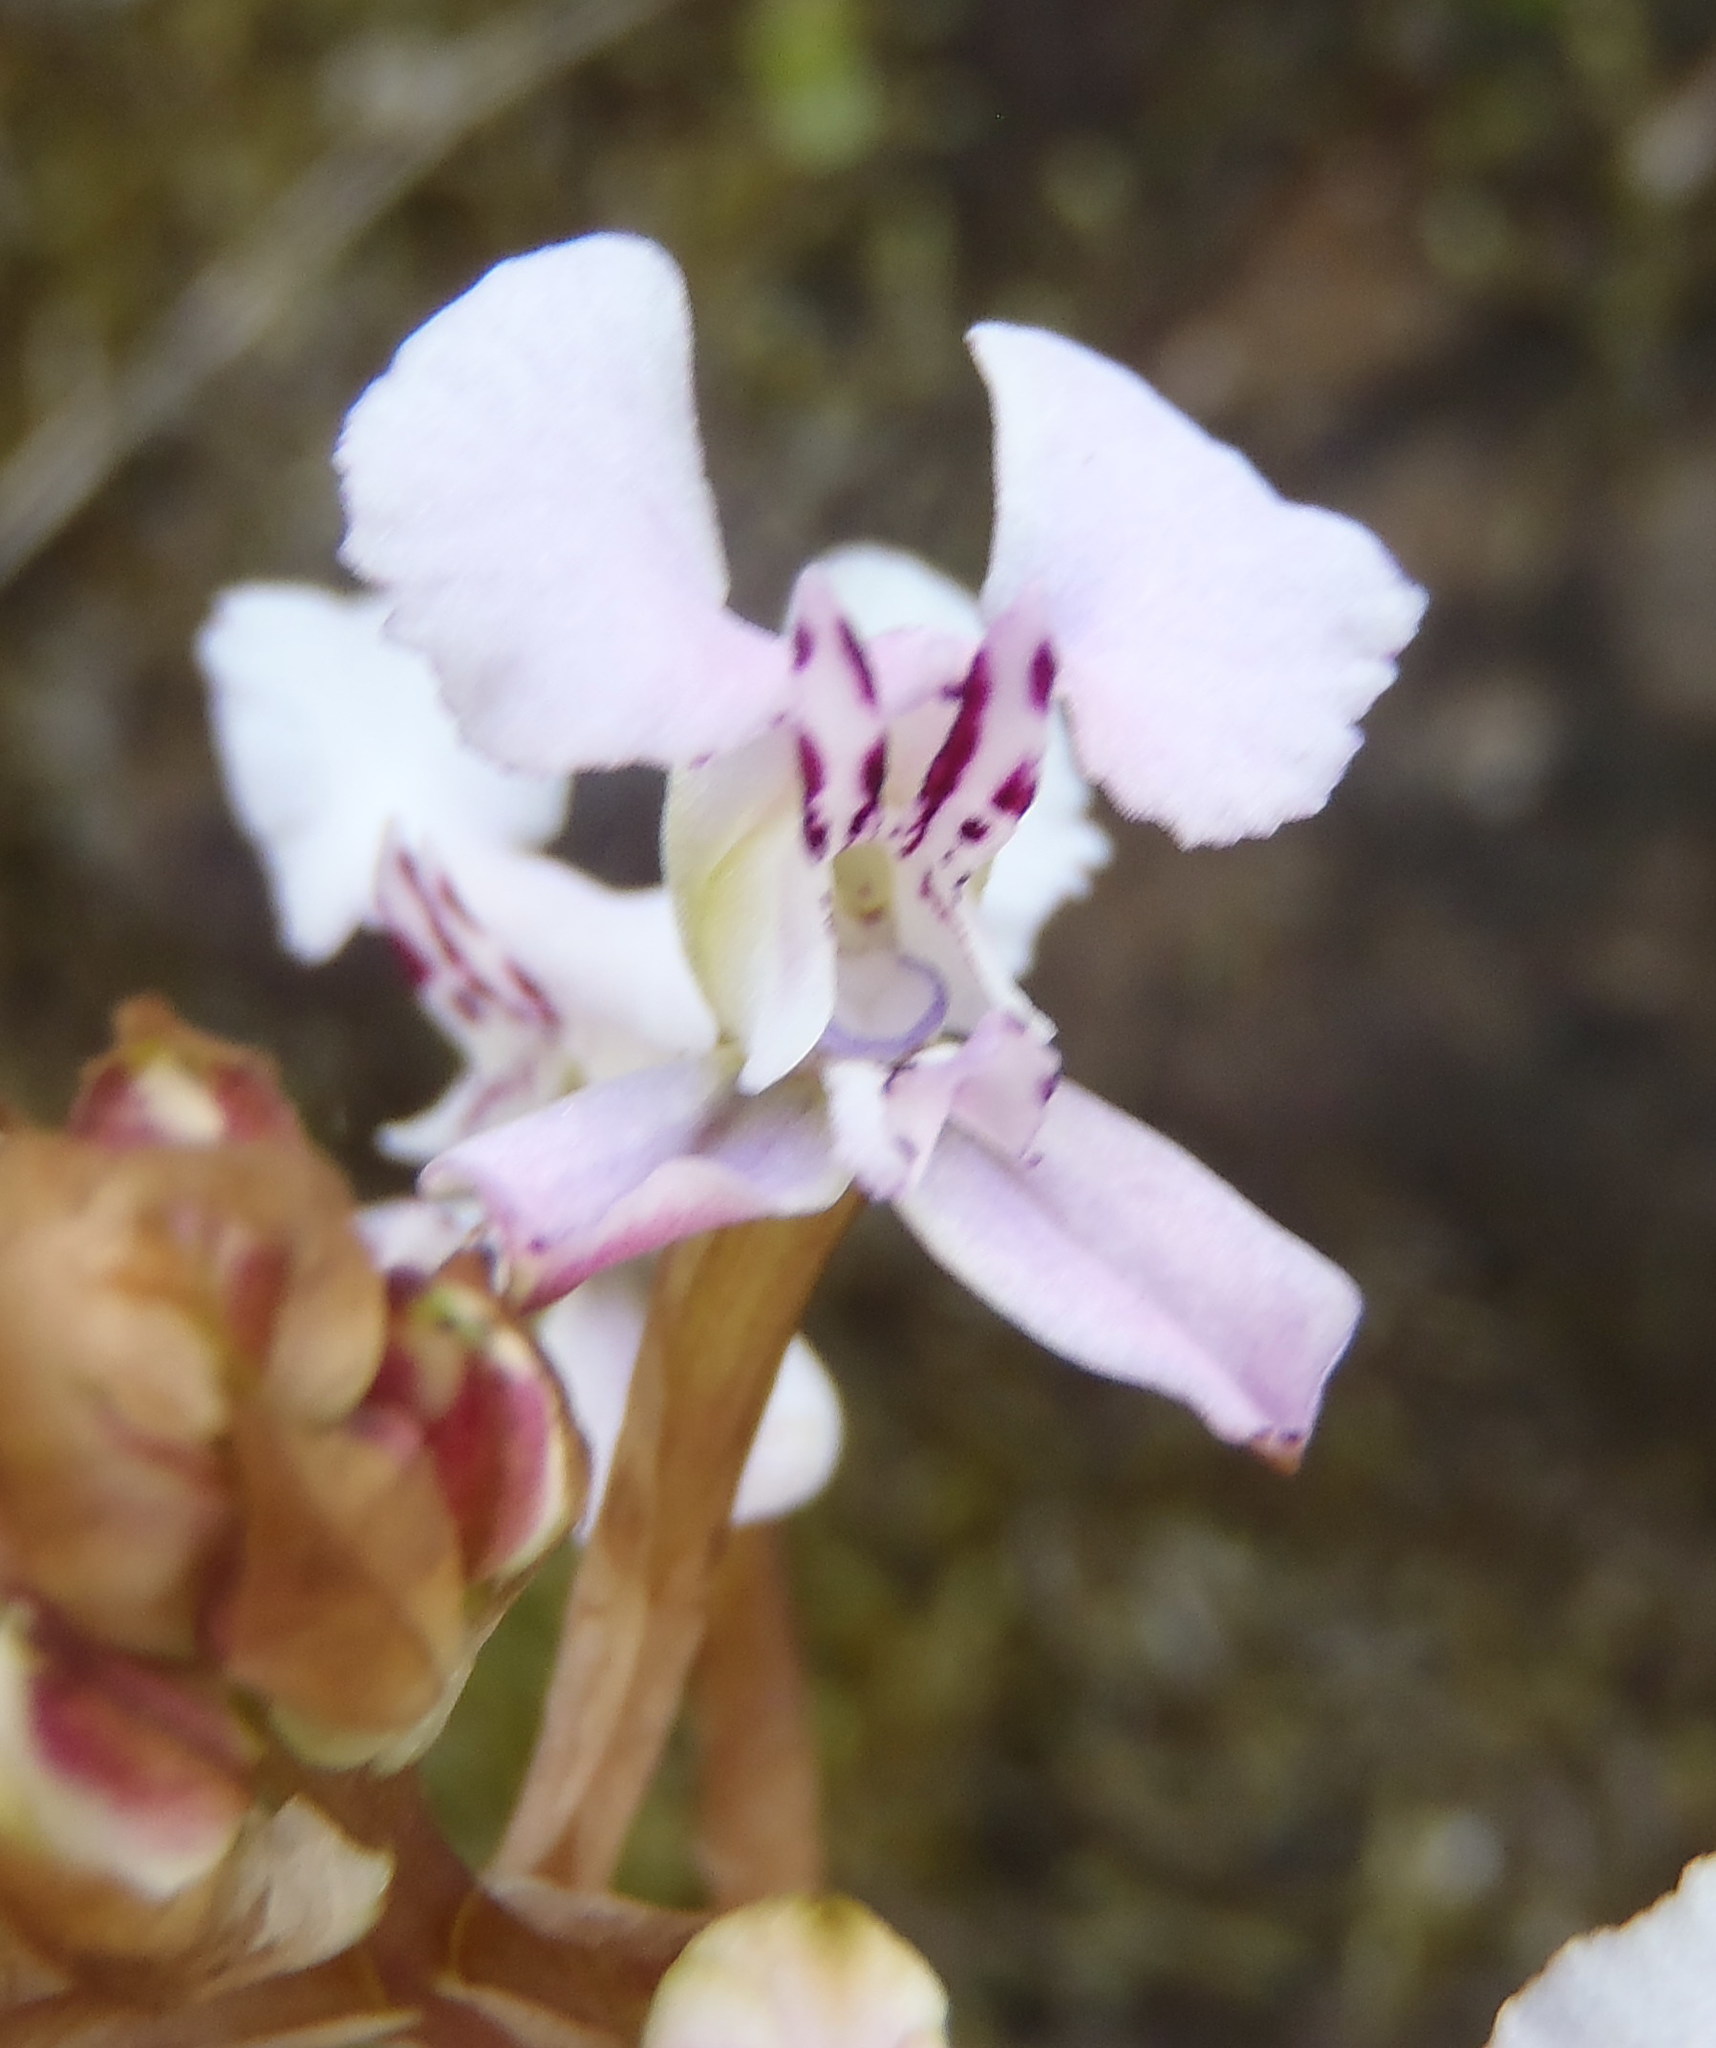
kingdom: Plantae
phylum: Tracheophyta
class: Liliopsida
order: Asparagales
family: Orchidaceae
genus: Disa
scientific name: Disa sagittalis
